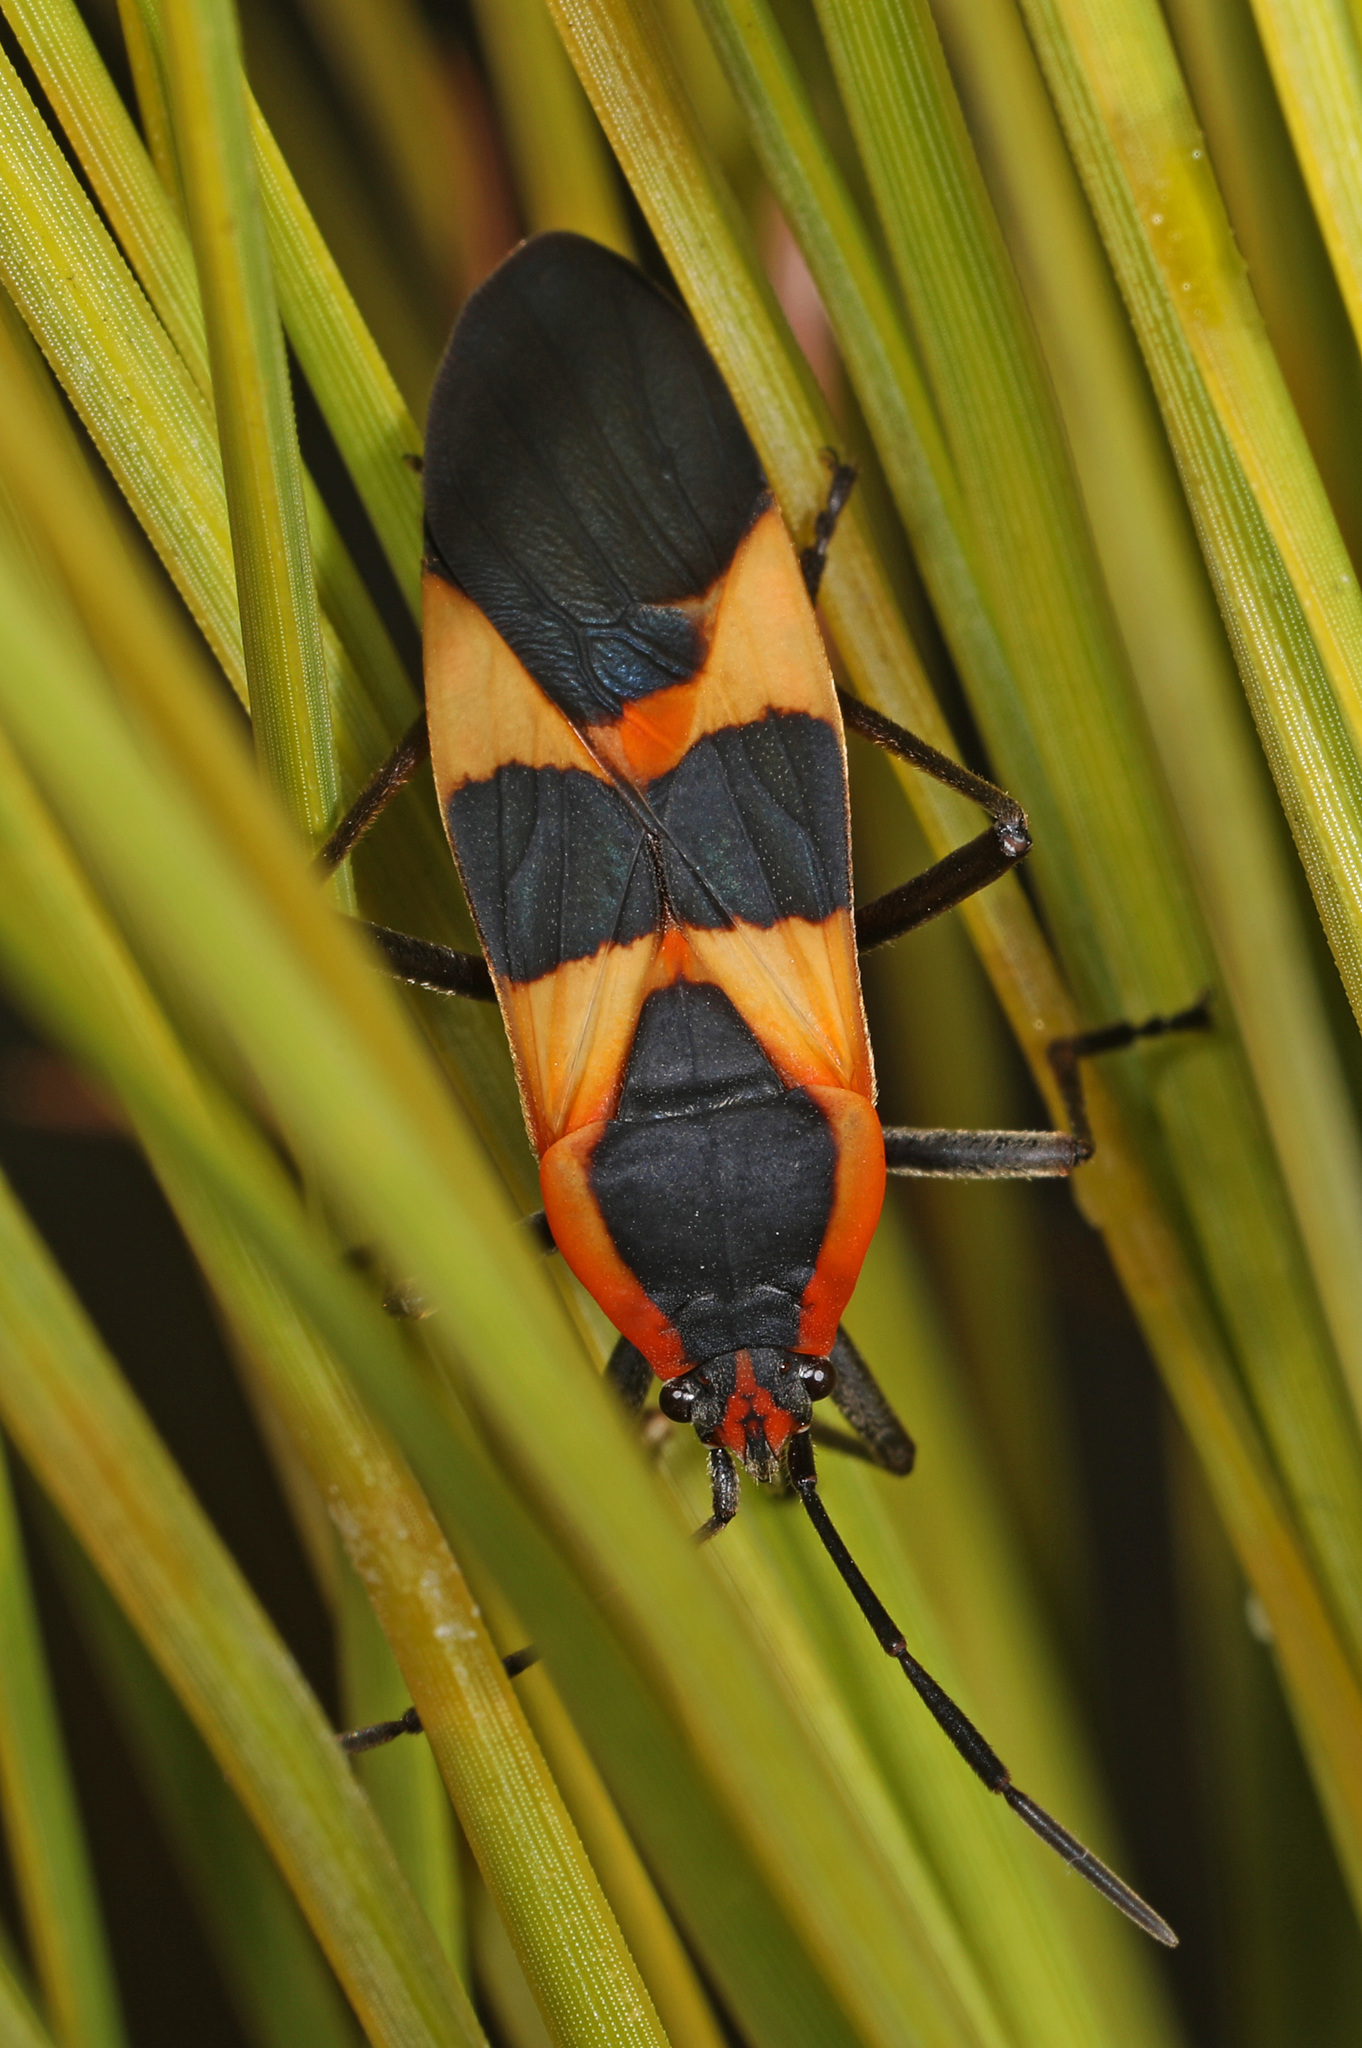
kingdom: Animalia
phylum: Arthropoda
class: Insecta
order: Hemiptera
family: Lygaeidae
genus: Oncopeltus
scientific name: Oncopeltus fasciatus
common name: Large milkweed bug
